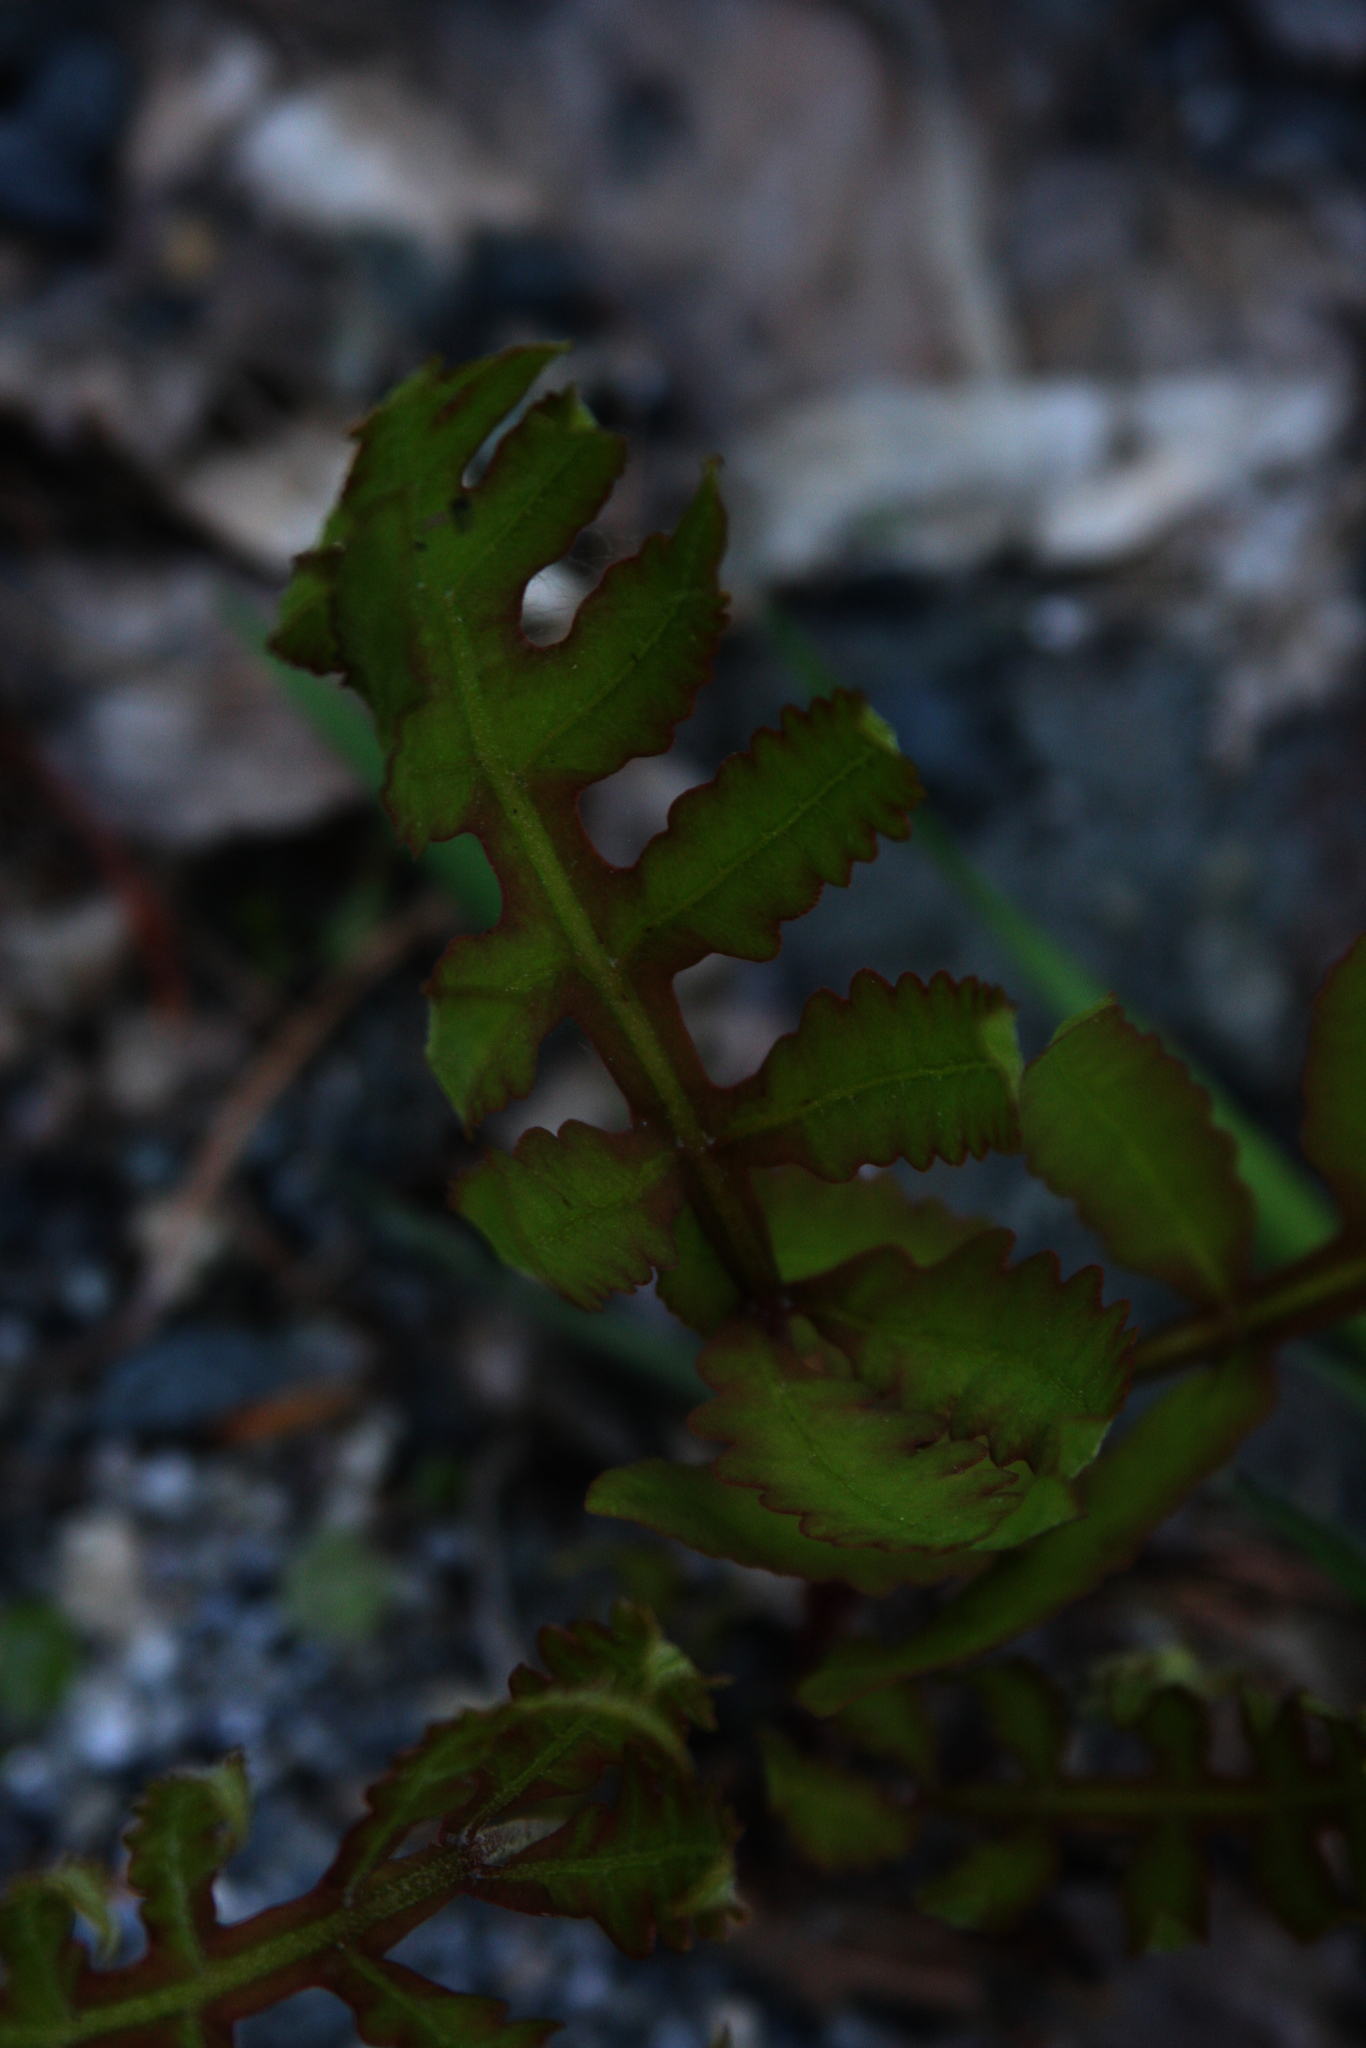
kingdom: Plantae
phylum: Tracheophyta
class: Polypodiopsida
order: Polypodiales
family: Onocleaceae
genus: Onoclea
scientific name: Onoclea sensibilis
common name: Sensitive fern
